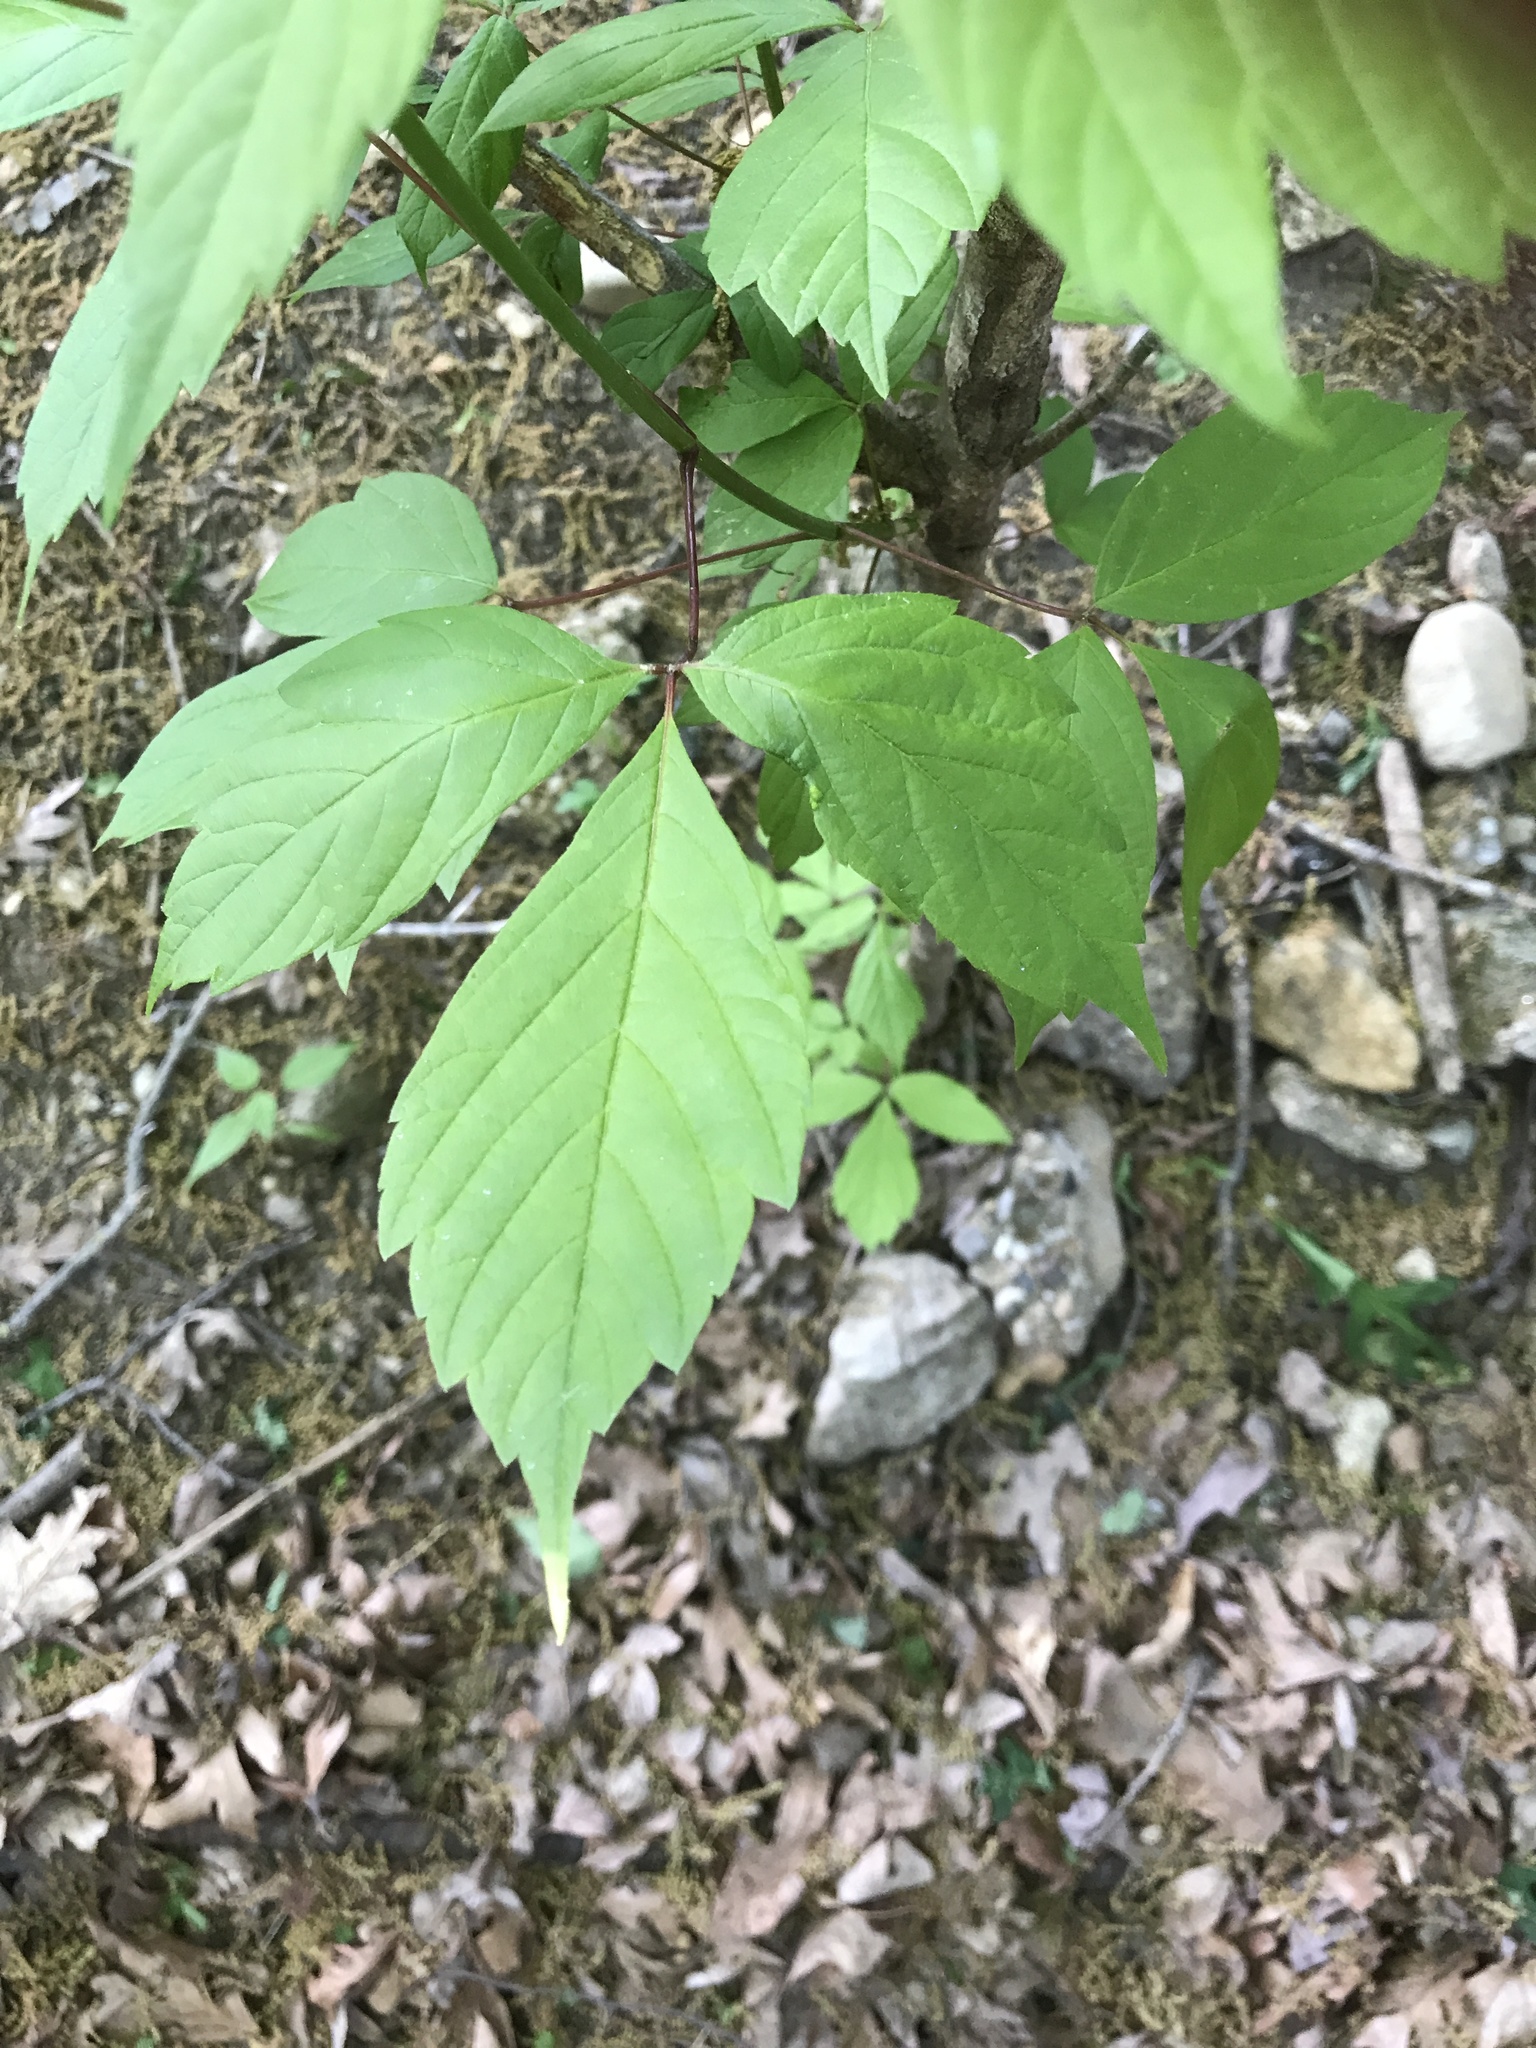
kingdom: Plantae
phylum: Tracheophyta
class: Magnoliopsida
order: Sapindales
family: Sapindaceae
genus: Acer
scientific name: Acer negundo
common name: Ashleaf maple
